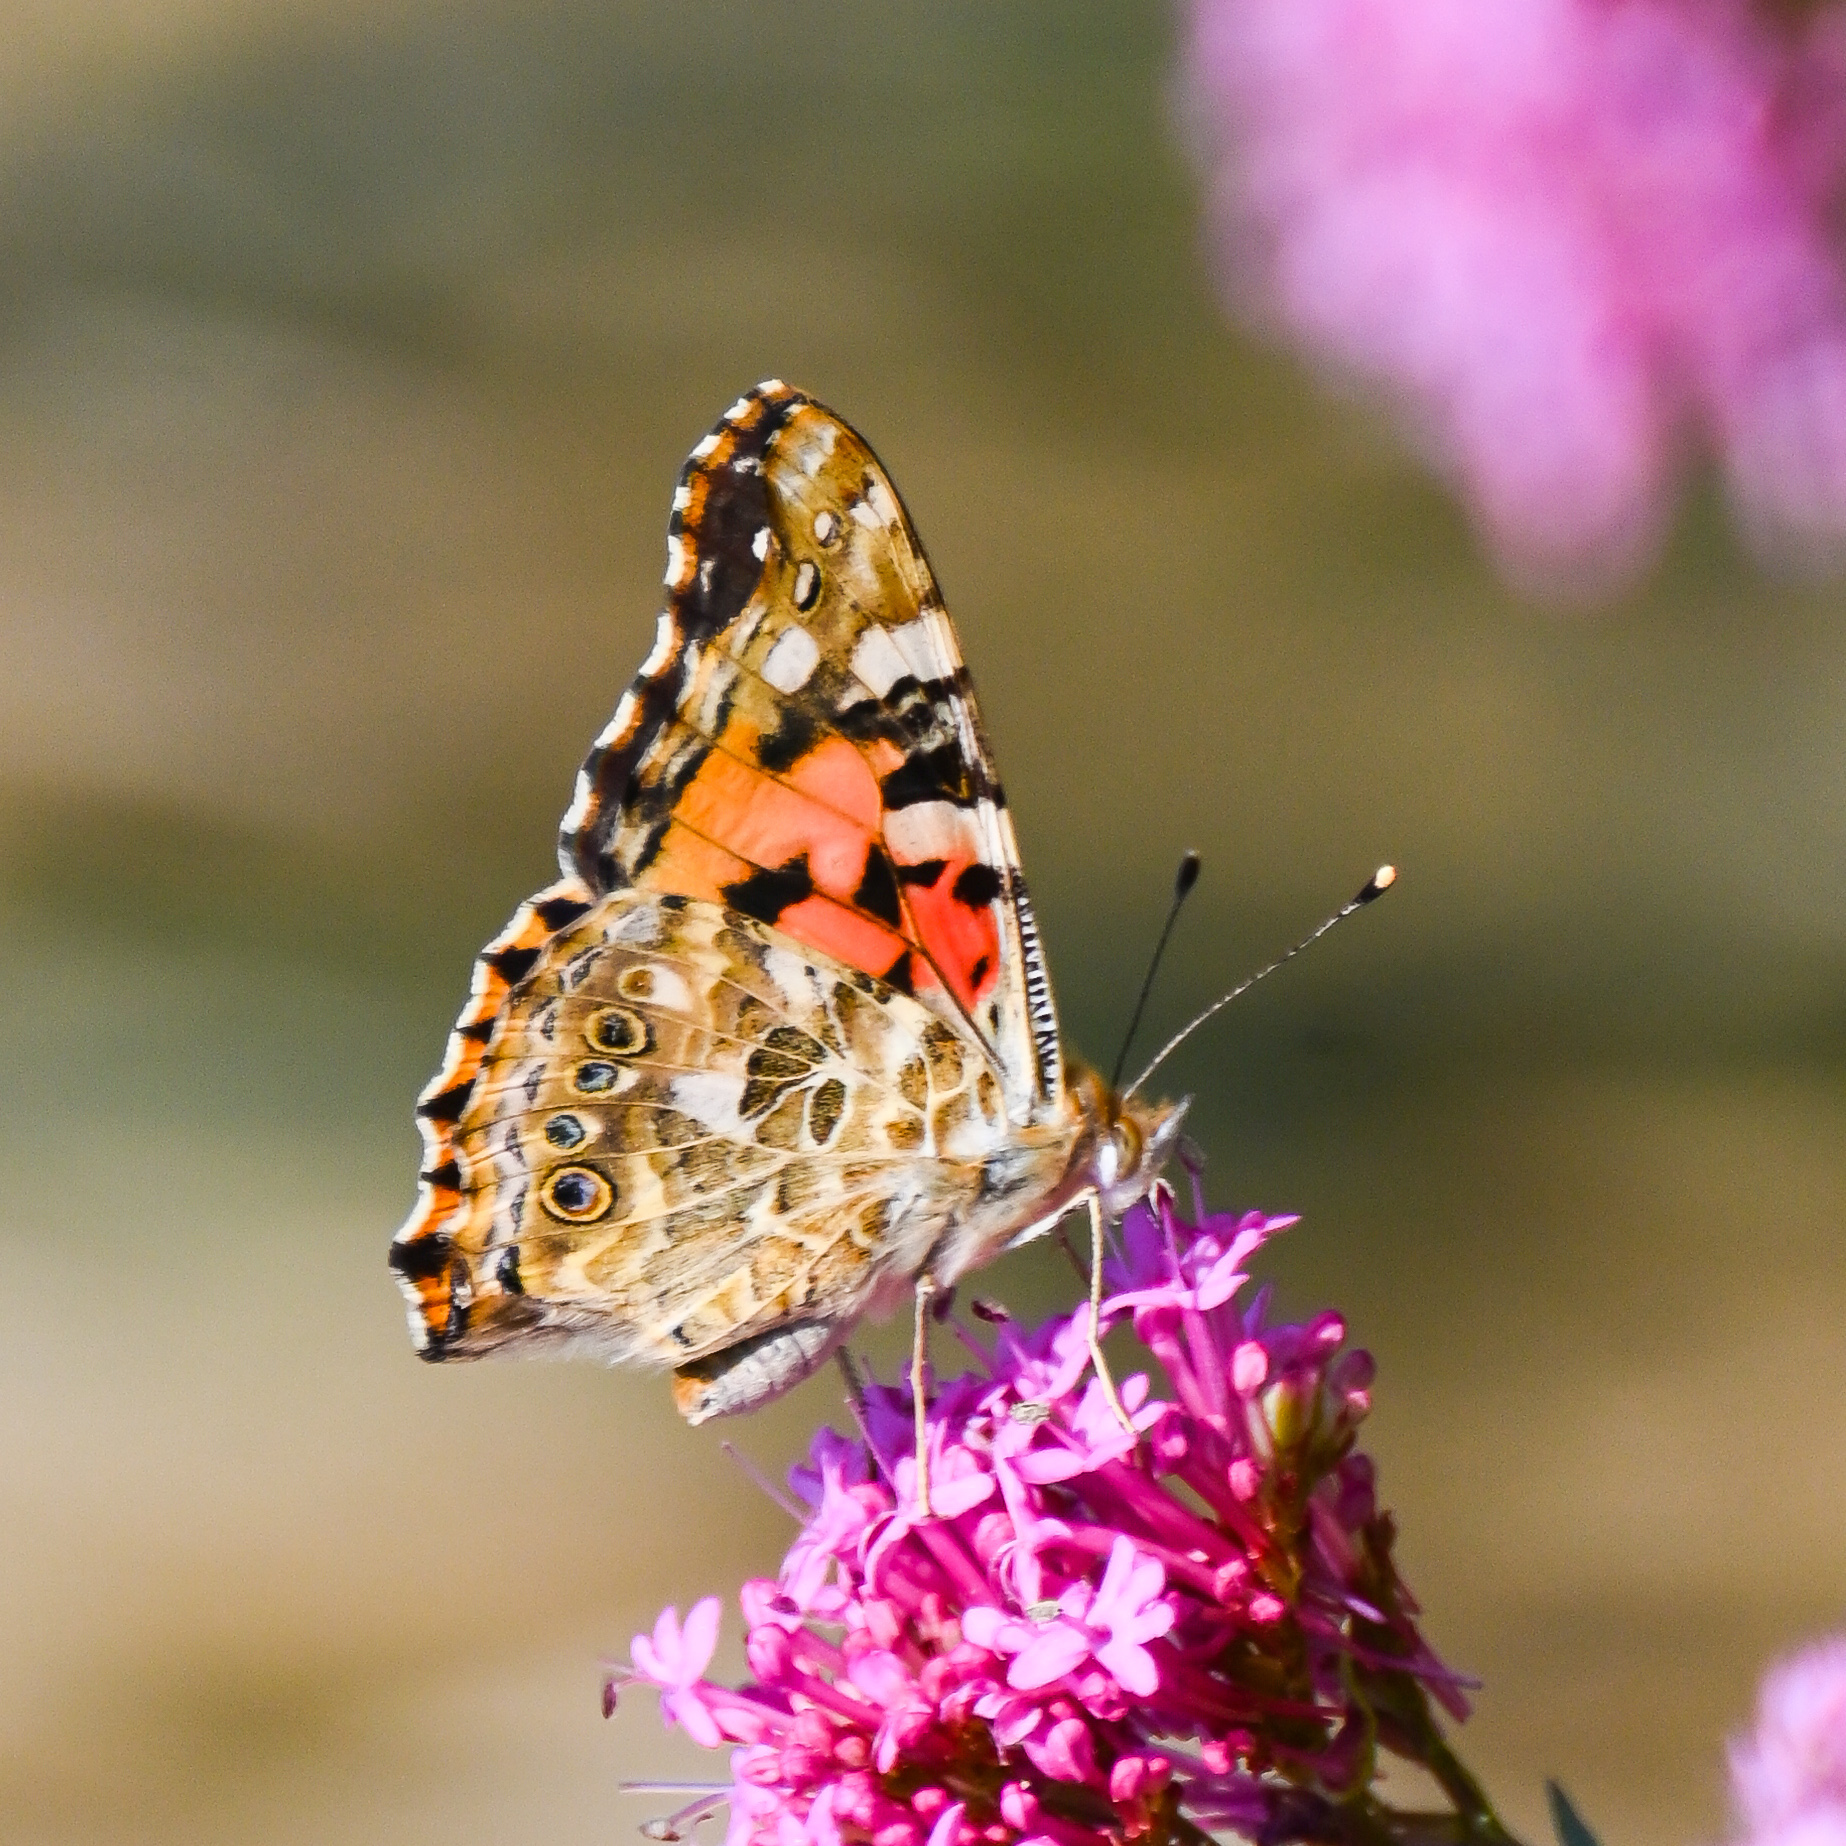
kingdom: Animalia
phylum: Arthropoda
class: Insecta
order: Lepidoptera
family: Nymphalidae
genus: Vanessa
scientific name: Vanessa cardui
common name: Painted lady
